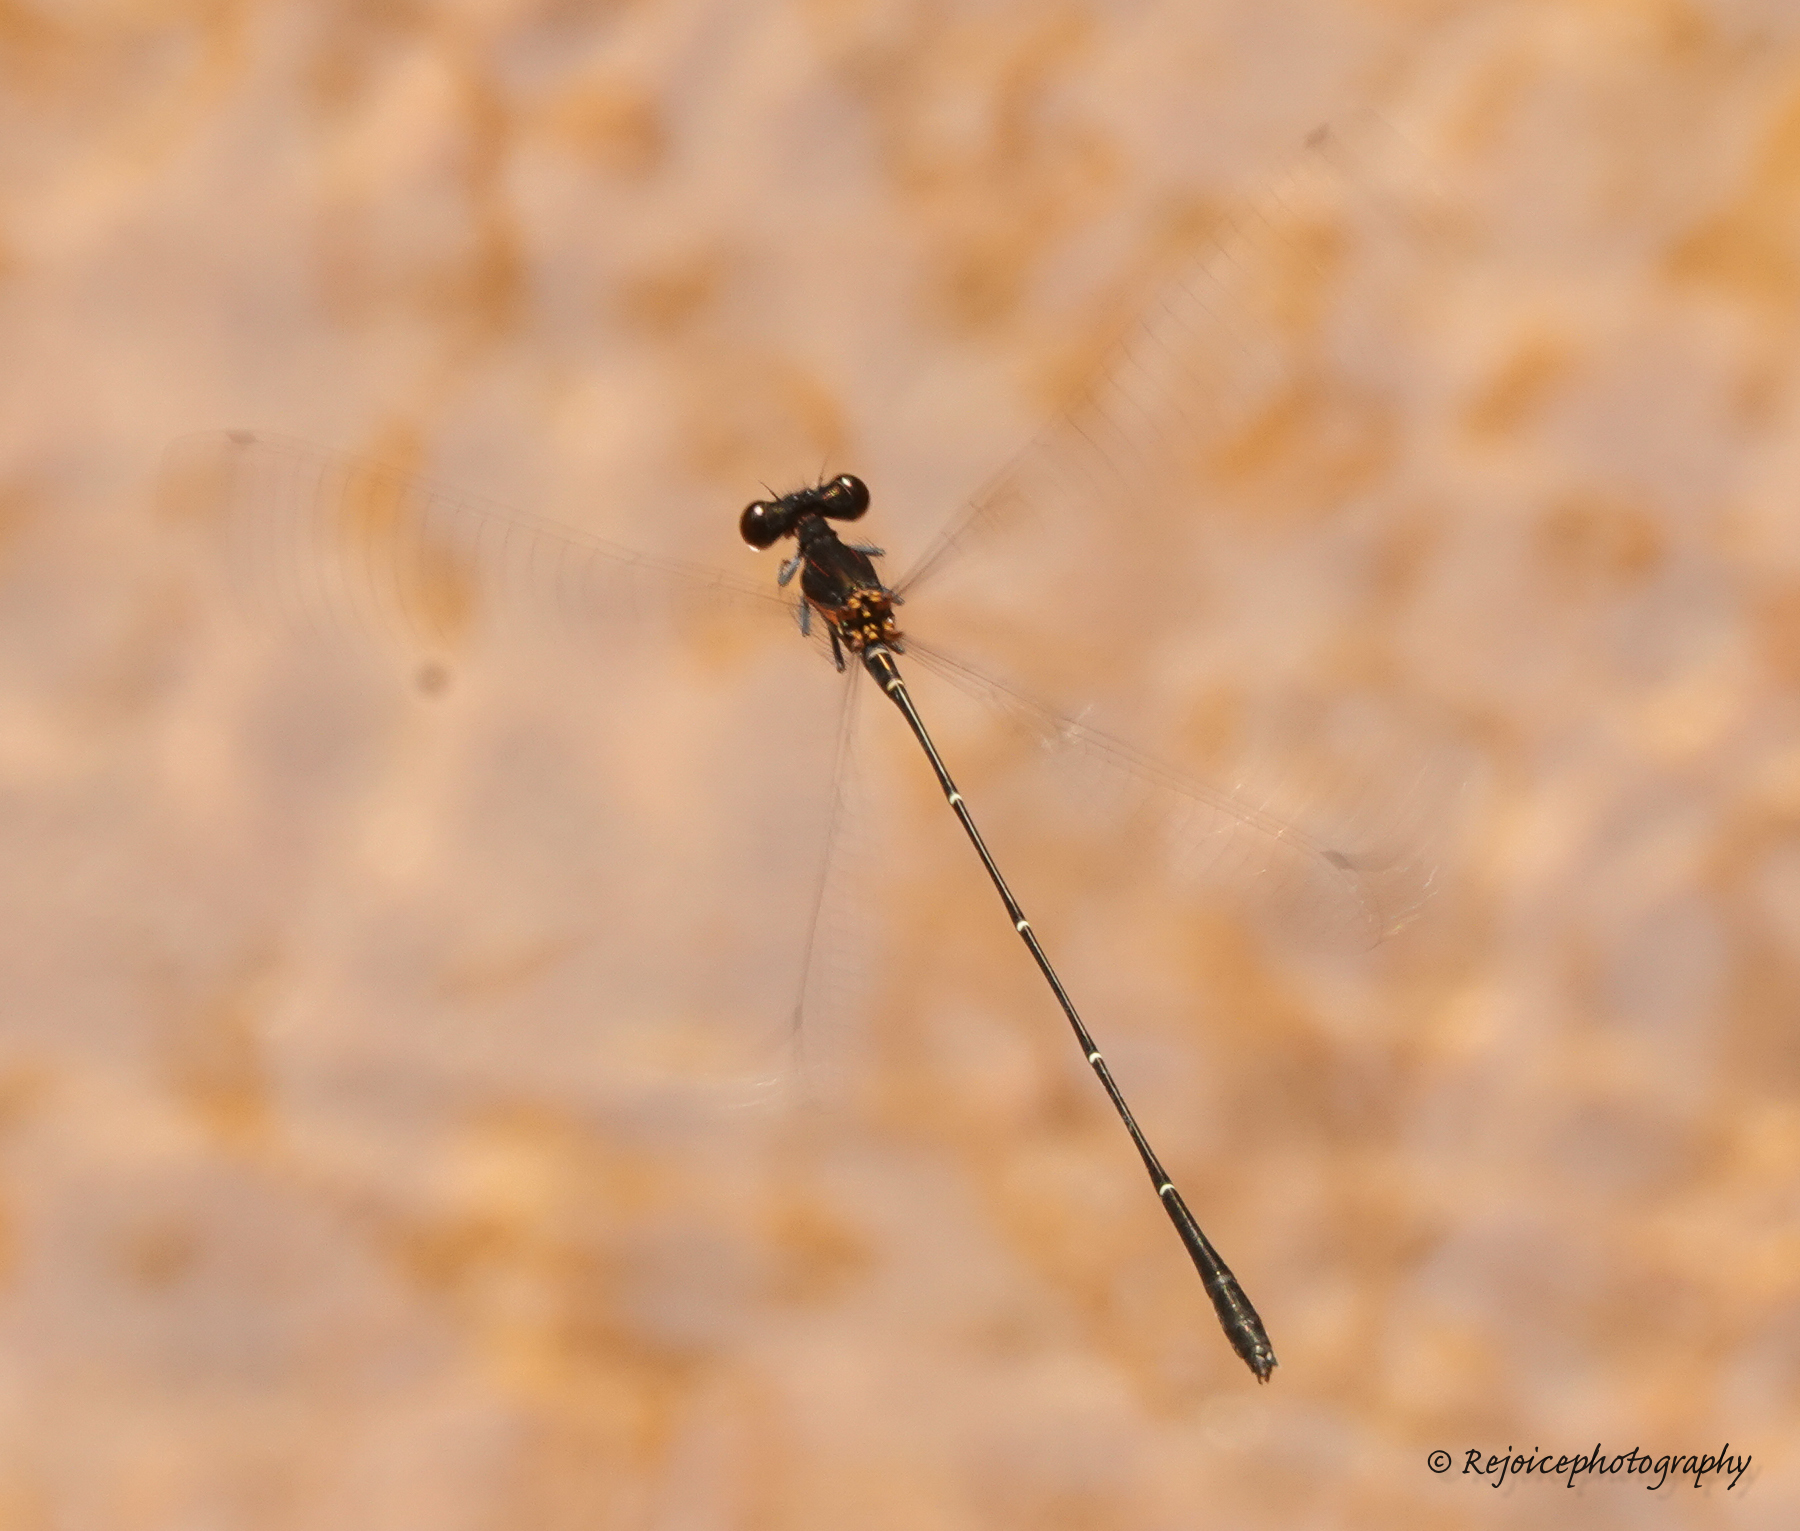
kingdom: Animalia
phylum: Arthropoda
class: Insecta
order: Odonata
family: Platycnemididae
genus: Prodasineura
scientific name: Prodasineura verticalis
